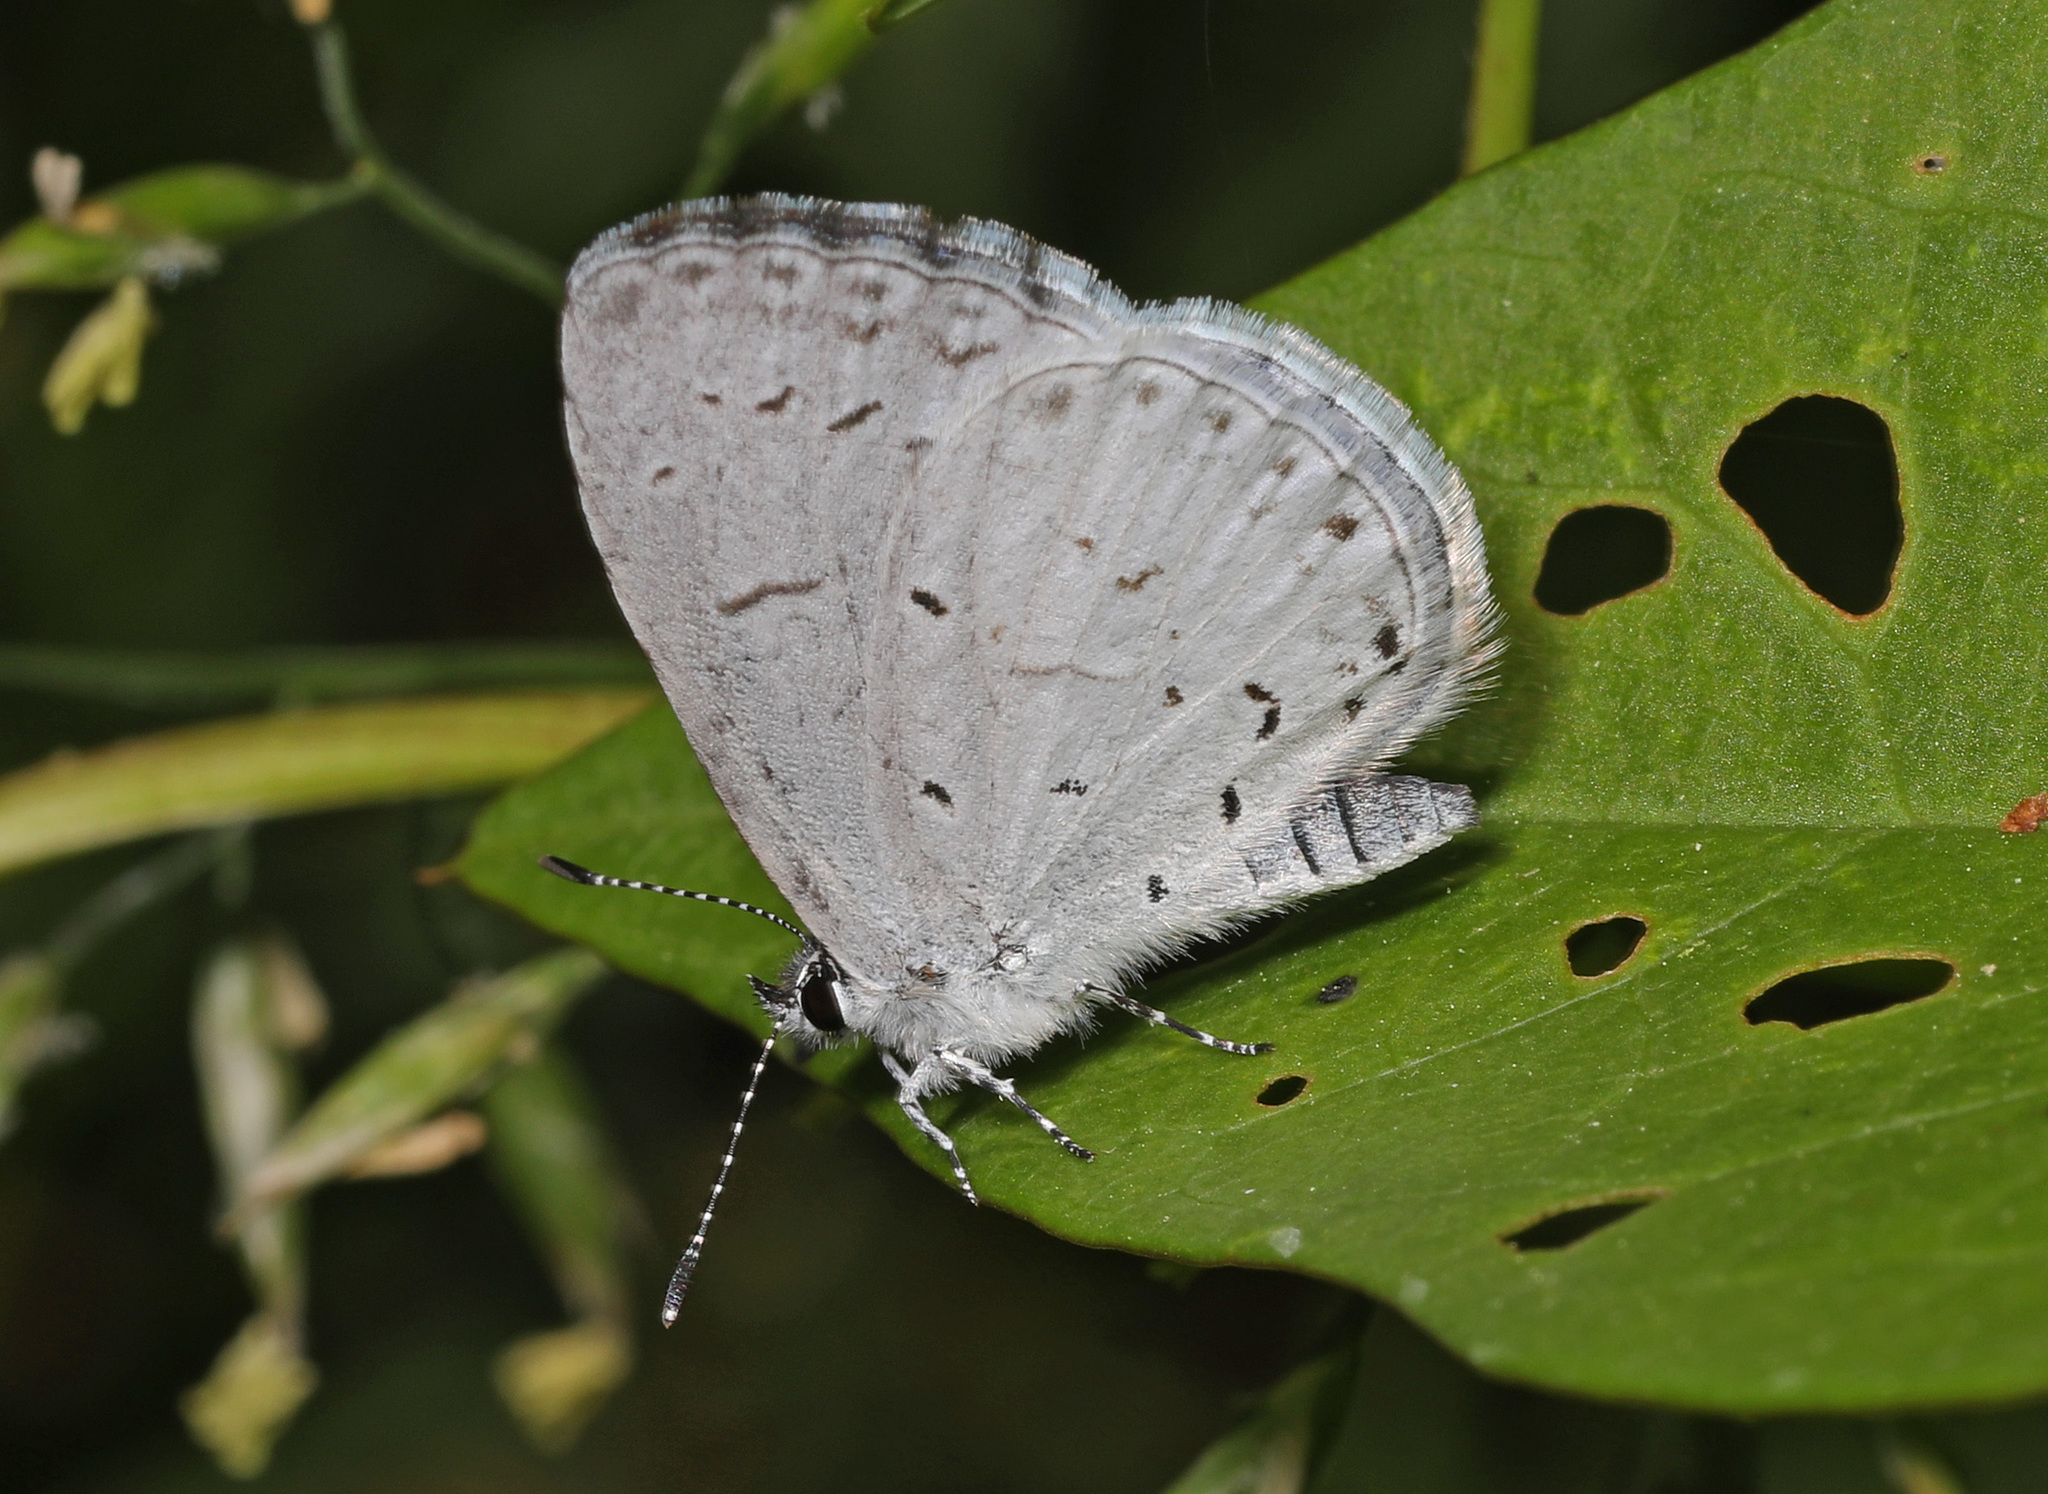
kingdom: Animalia
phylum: Arthropoda
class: Insecta
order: Lepidoptera
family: Lycaenidae
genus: Cyaniris
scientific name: Cyaniris neglecta
